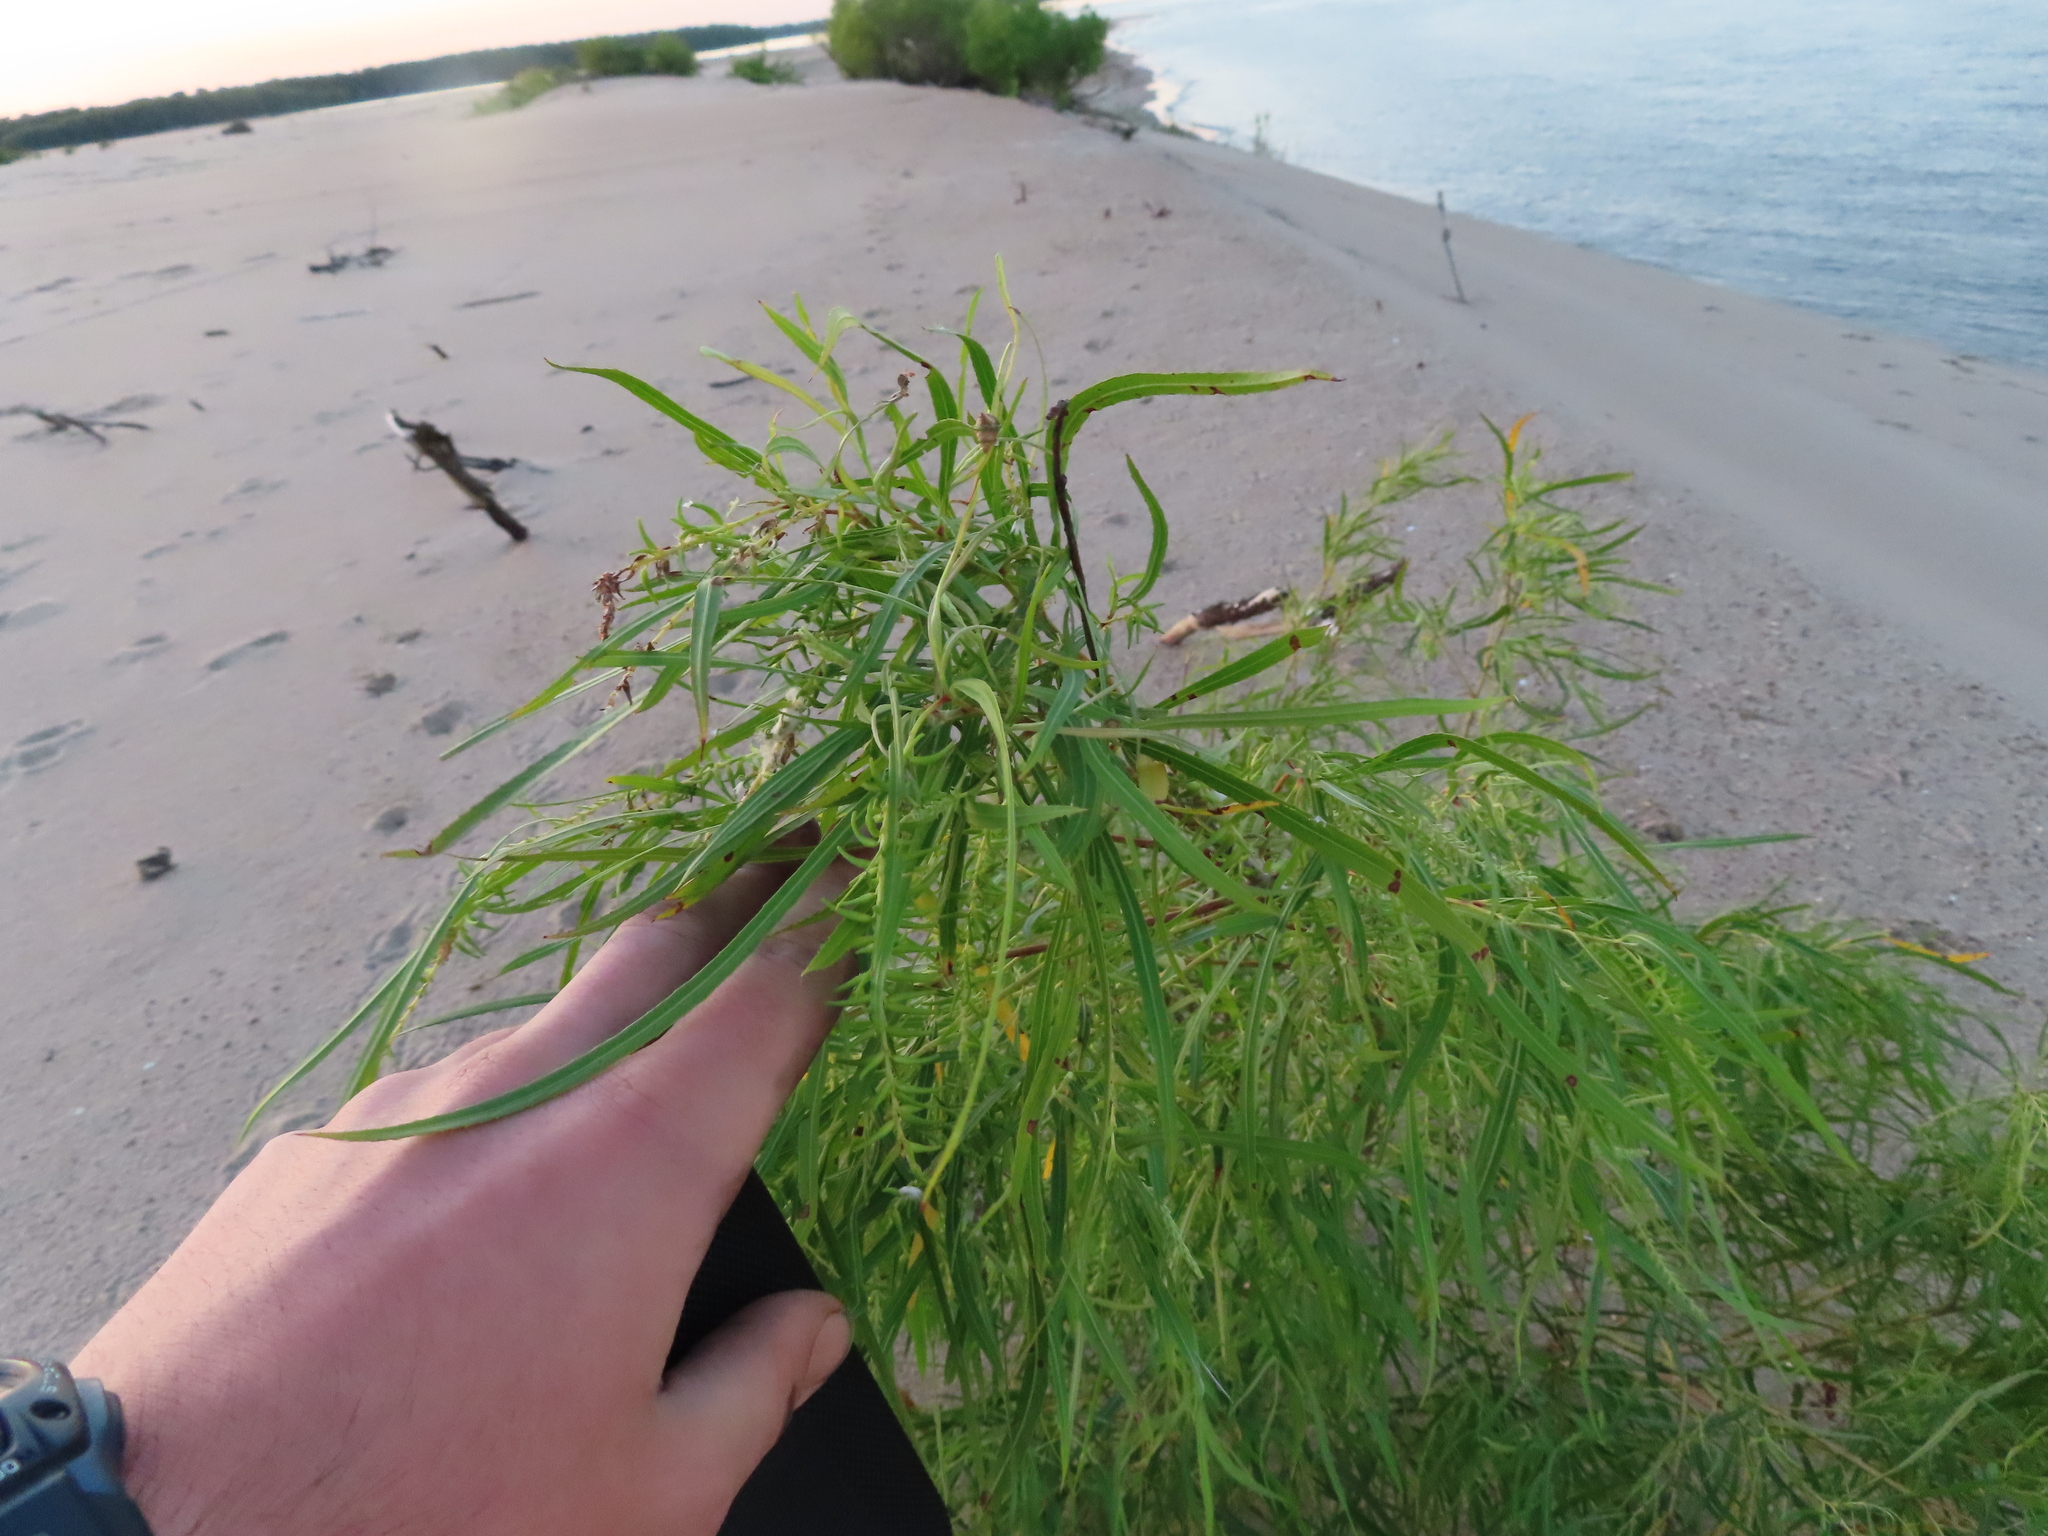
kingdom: Plantae
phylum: Tracheophyta
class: Magnoliopsida
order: Malpighiales
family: Salicaceae
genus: Salix
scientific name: Salix interior
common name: Sandbar willow
